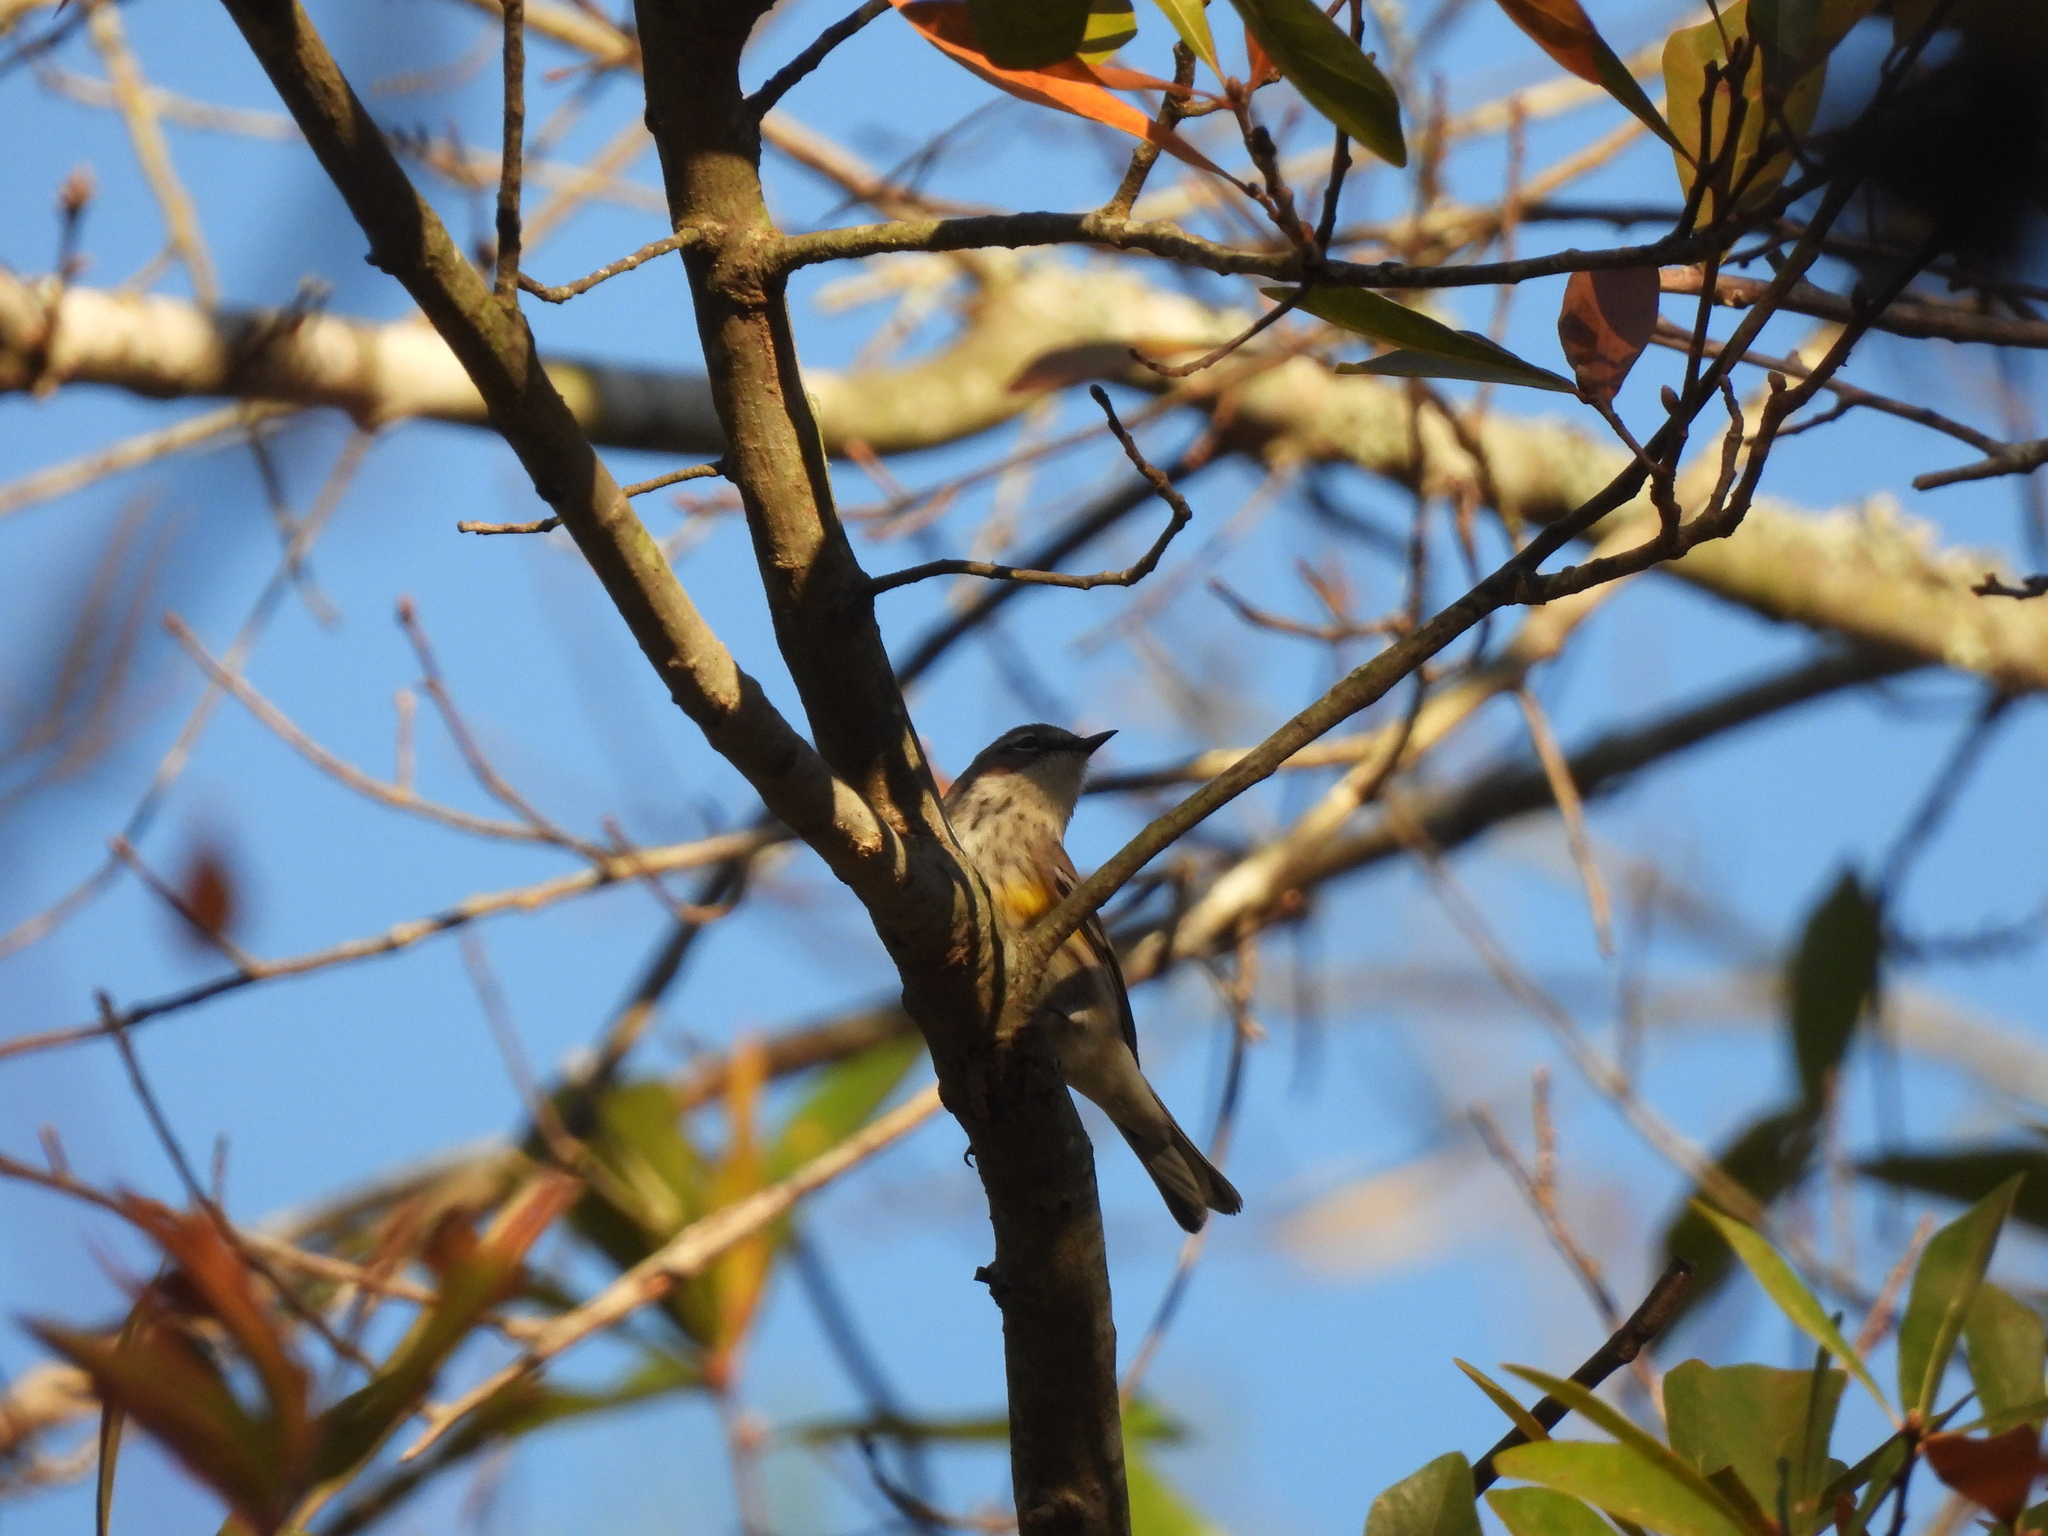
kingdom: Animalia
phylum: Chordata
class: Aves
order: Passeriformes
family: Parulidae
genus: Setophaga
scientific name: Setophaga coronata
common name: Myrtle warbler
